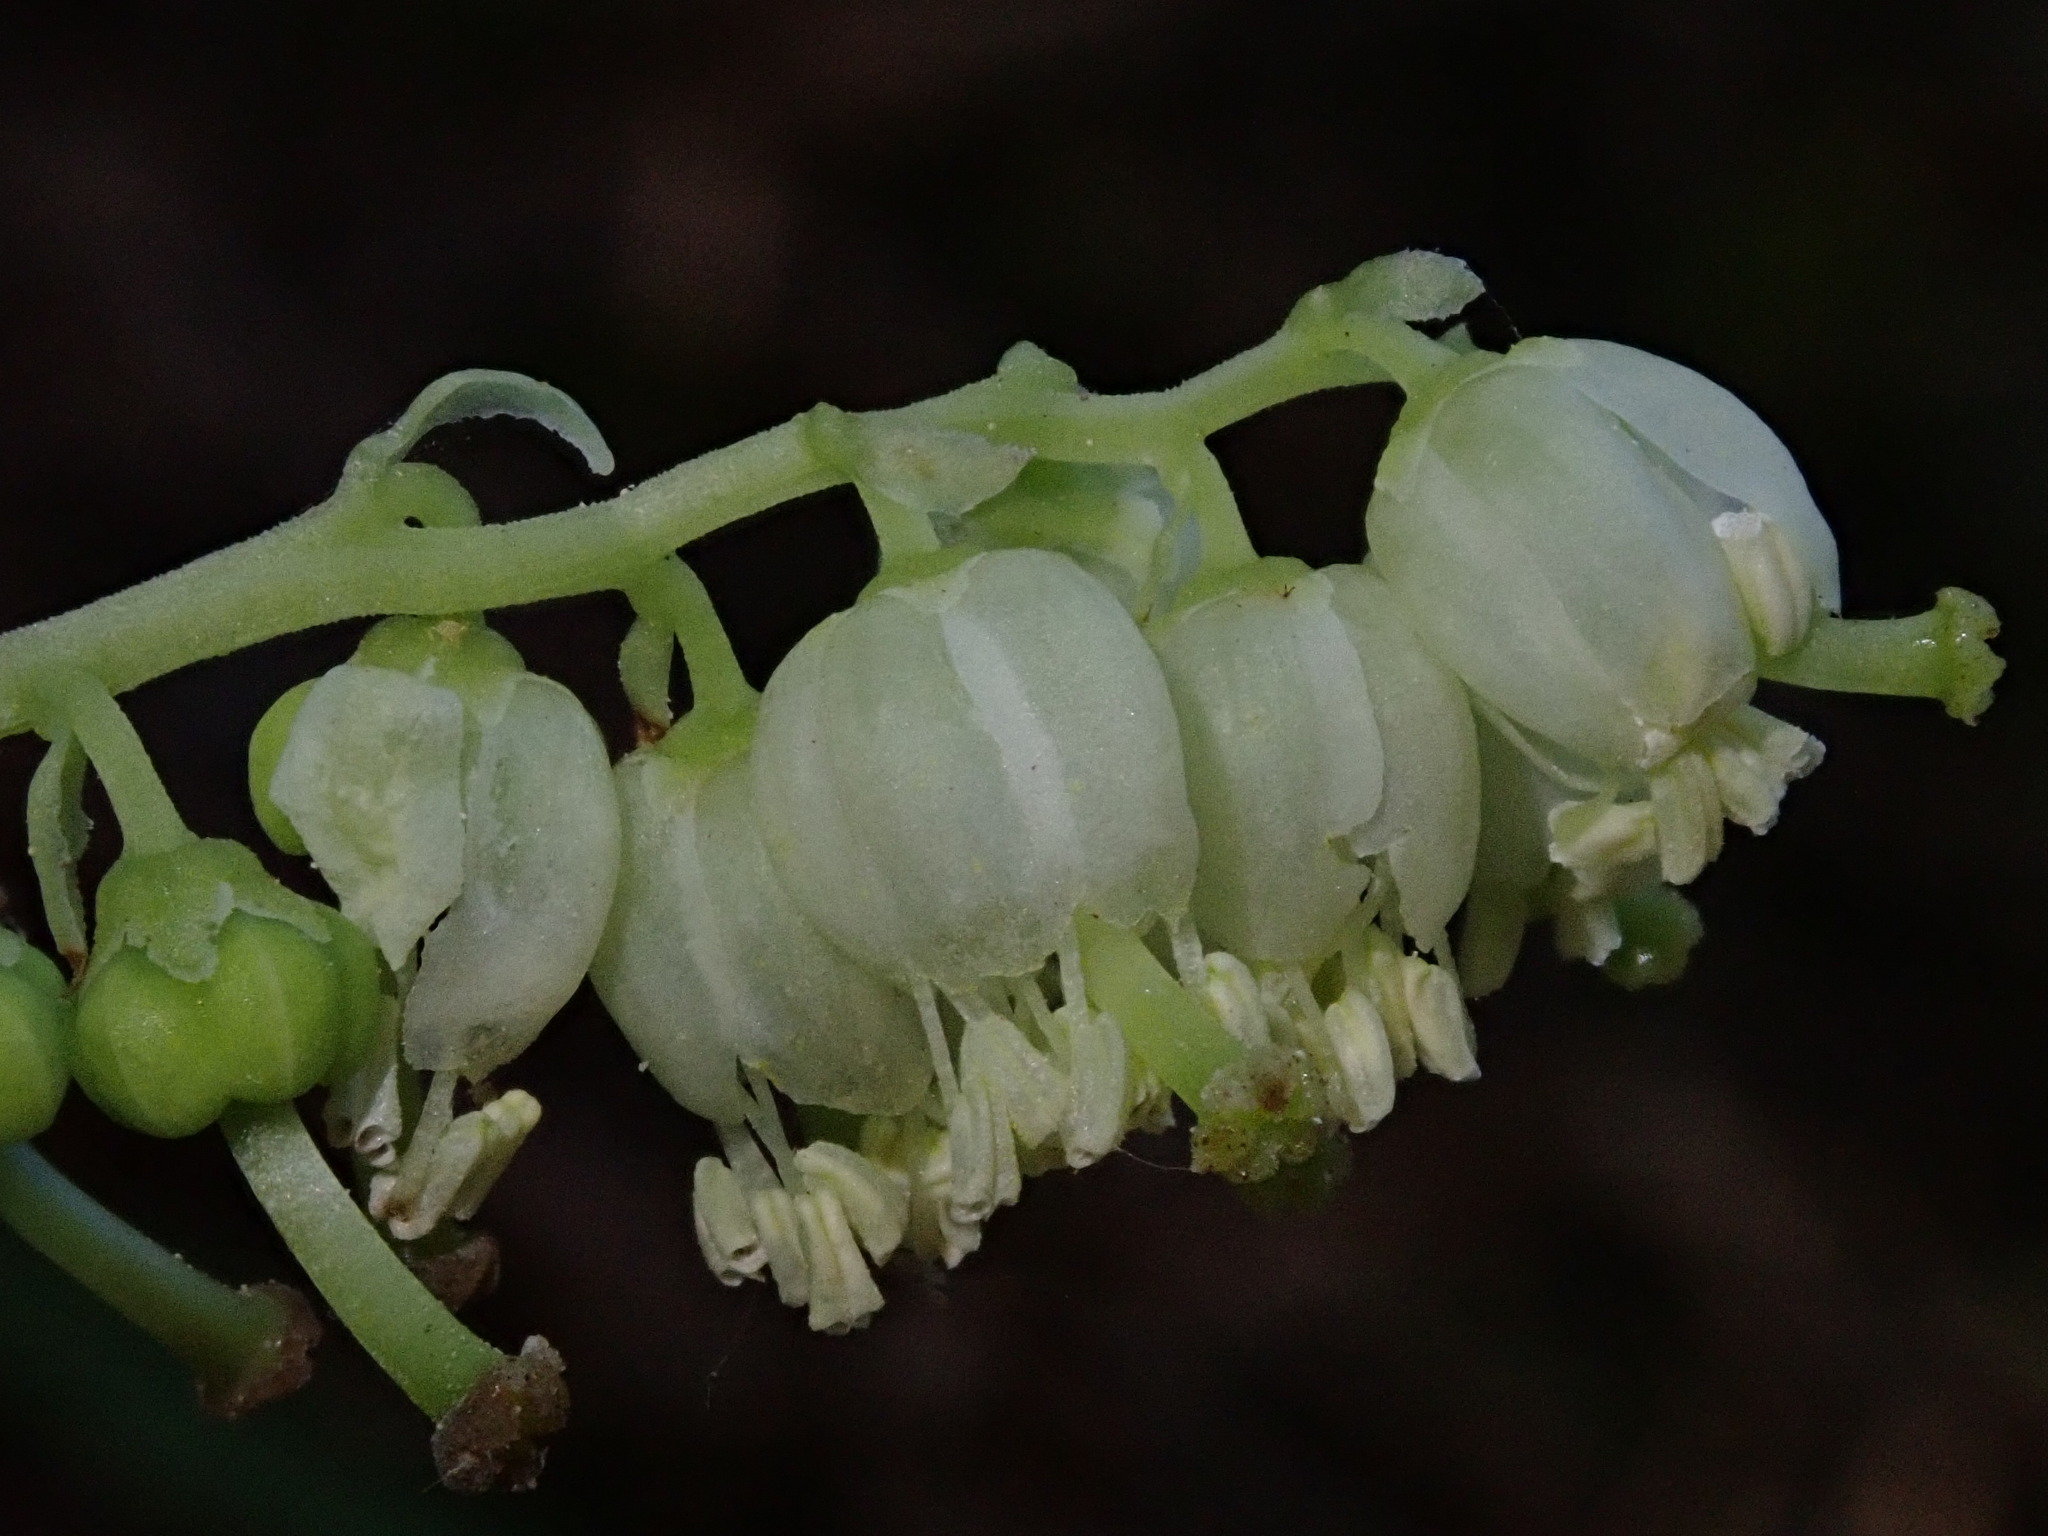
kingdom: Plantae
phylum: Tracheophyta
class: Magnoliopsida
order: Ericales
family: Ericaceae
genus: Orthilia
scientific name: Orthilia secunda
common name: One-sided orthilia
